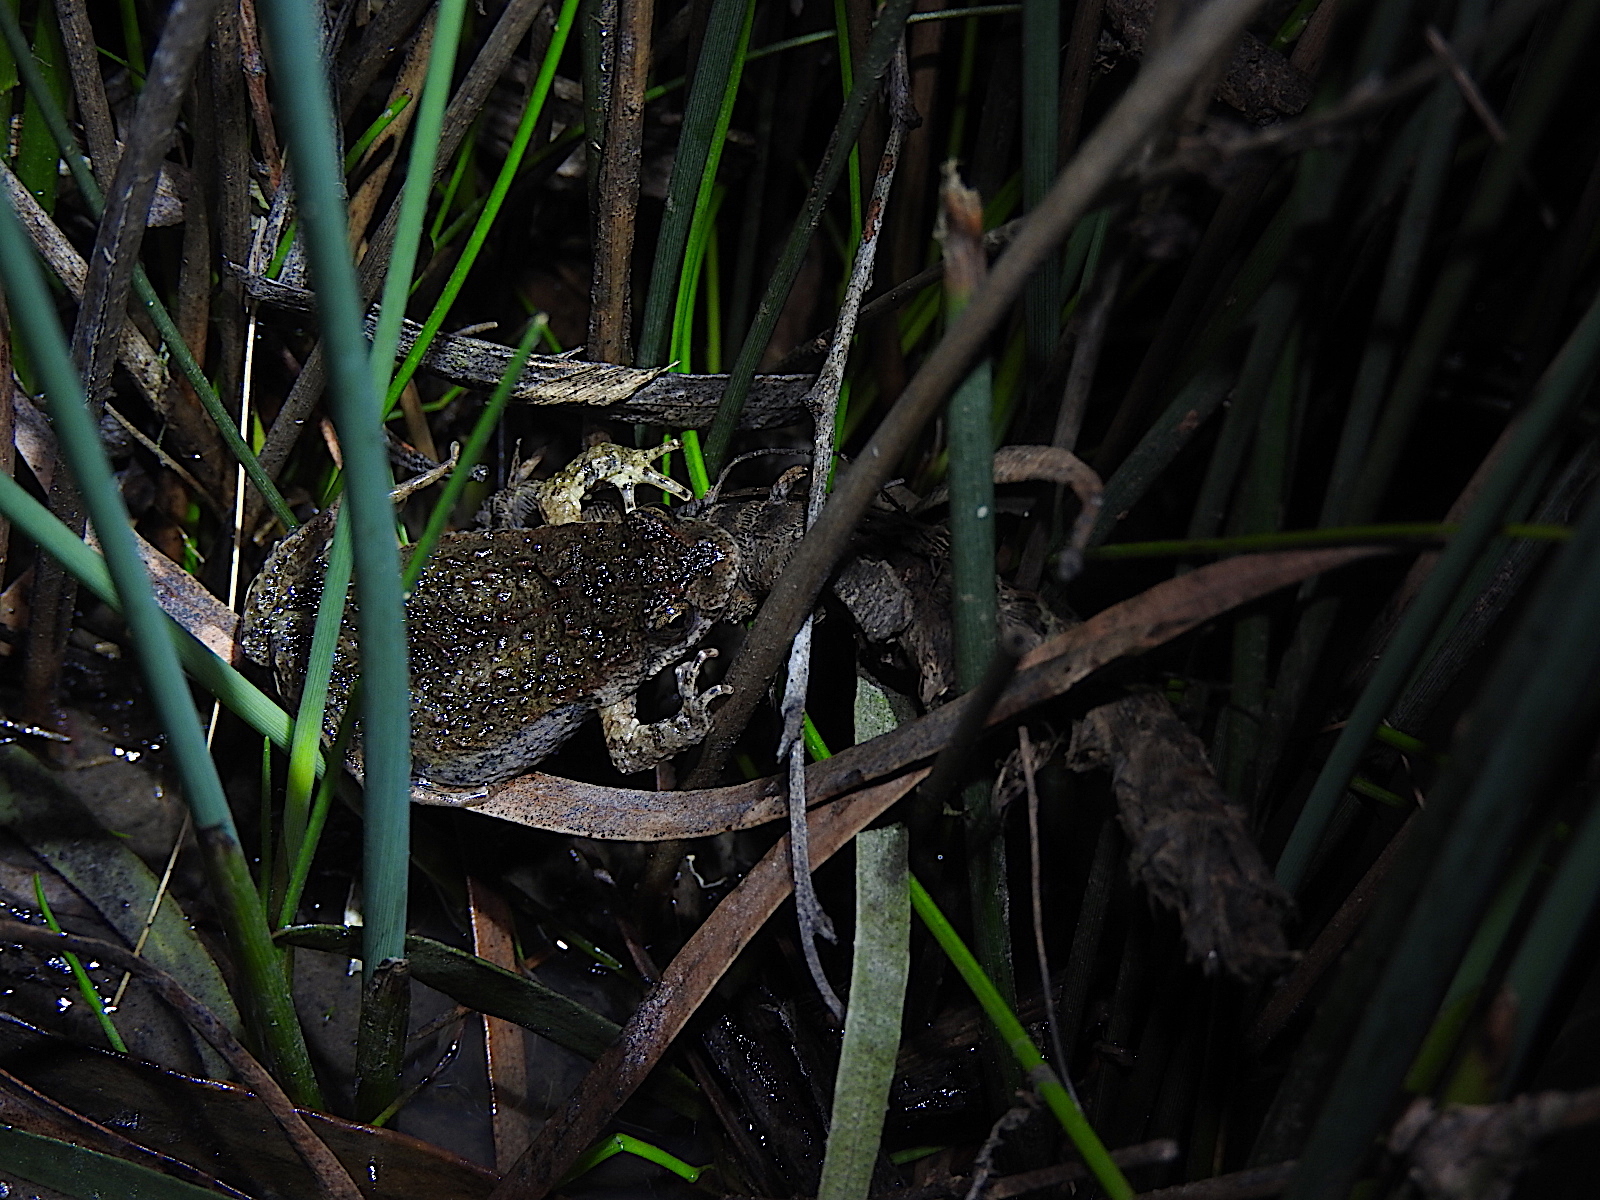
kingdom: Animalia
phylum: Chordata
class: Amphibia
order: Anura
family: Myobatrachidae
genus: Crinia
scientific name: Crinia signifera
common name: Brown froglet
